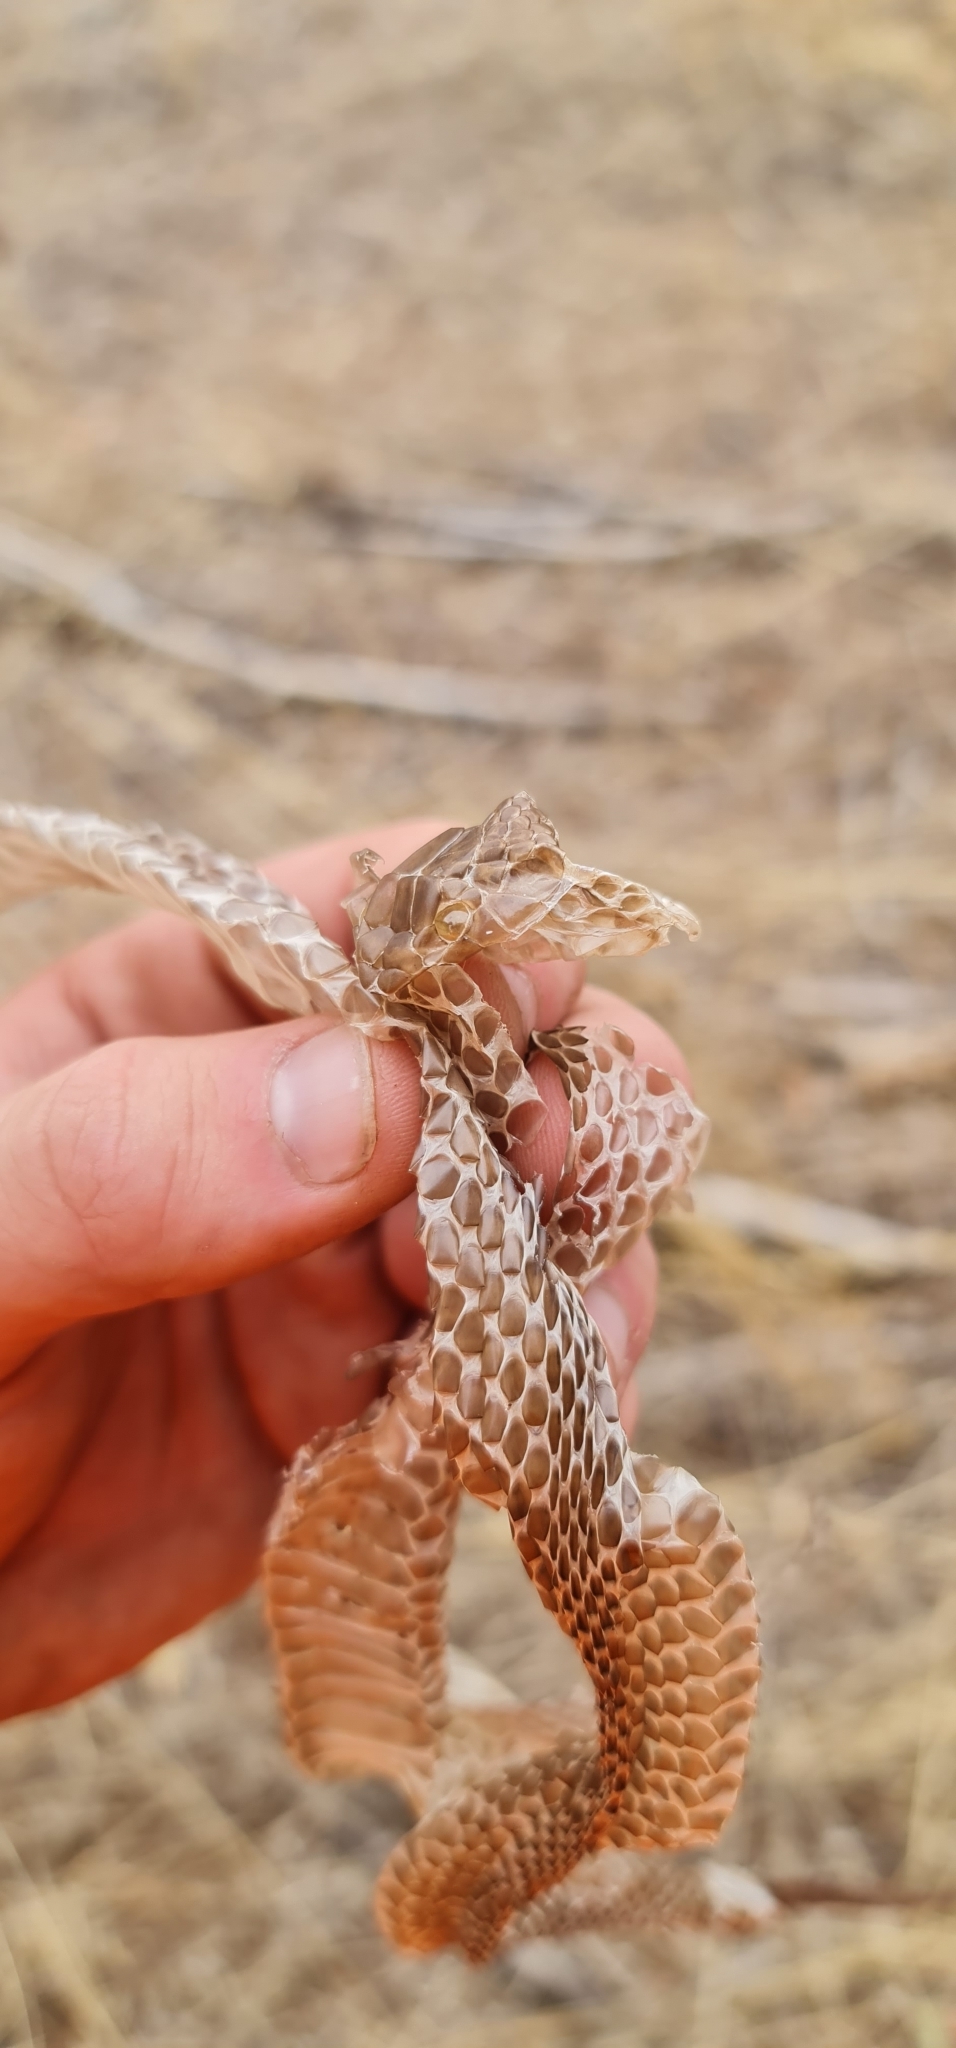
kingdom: Animalia
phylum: Chordata
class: Squamata
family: Elapidae
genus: Pseudonaja
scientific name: Pseudonaja textilis
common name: Eastern brown snake
